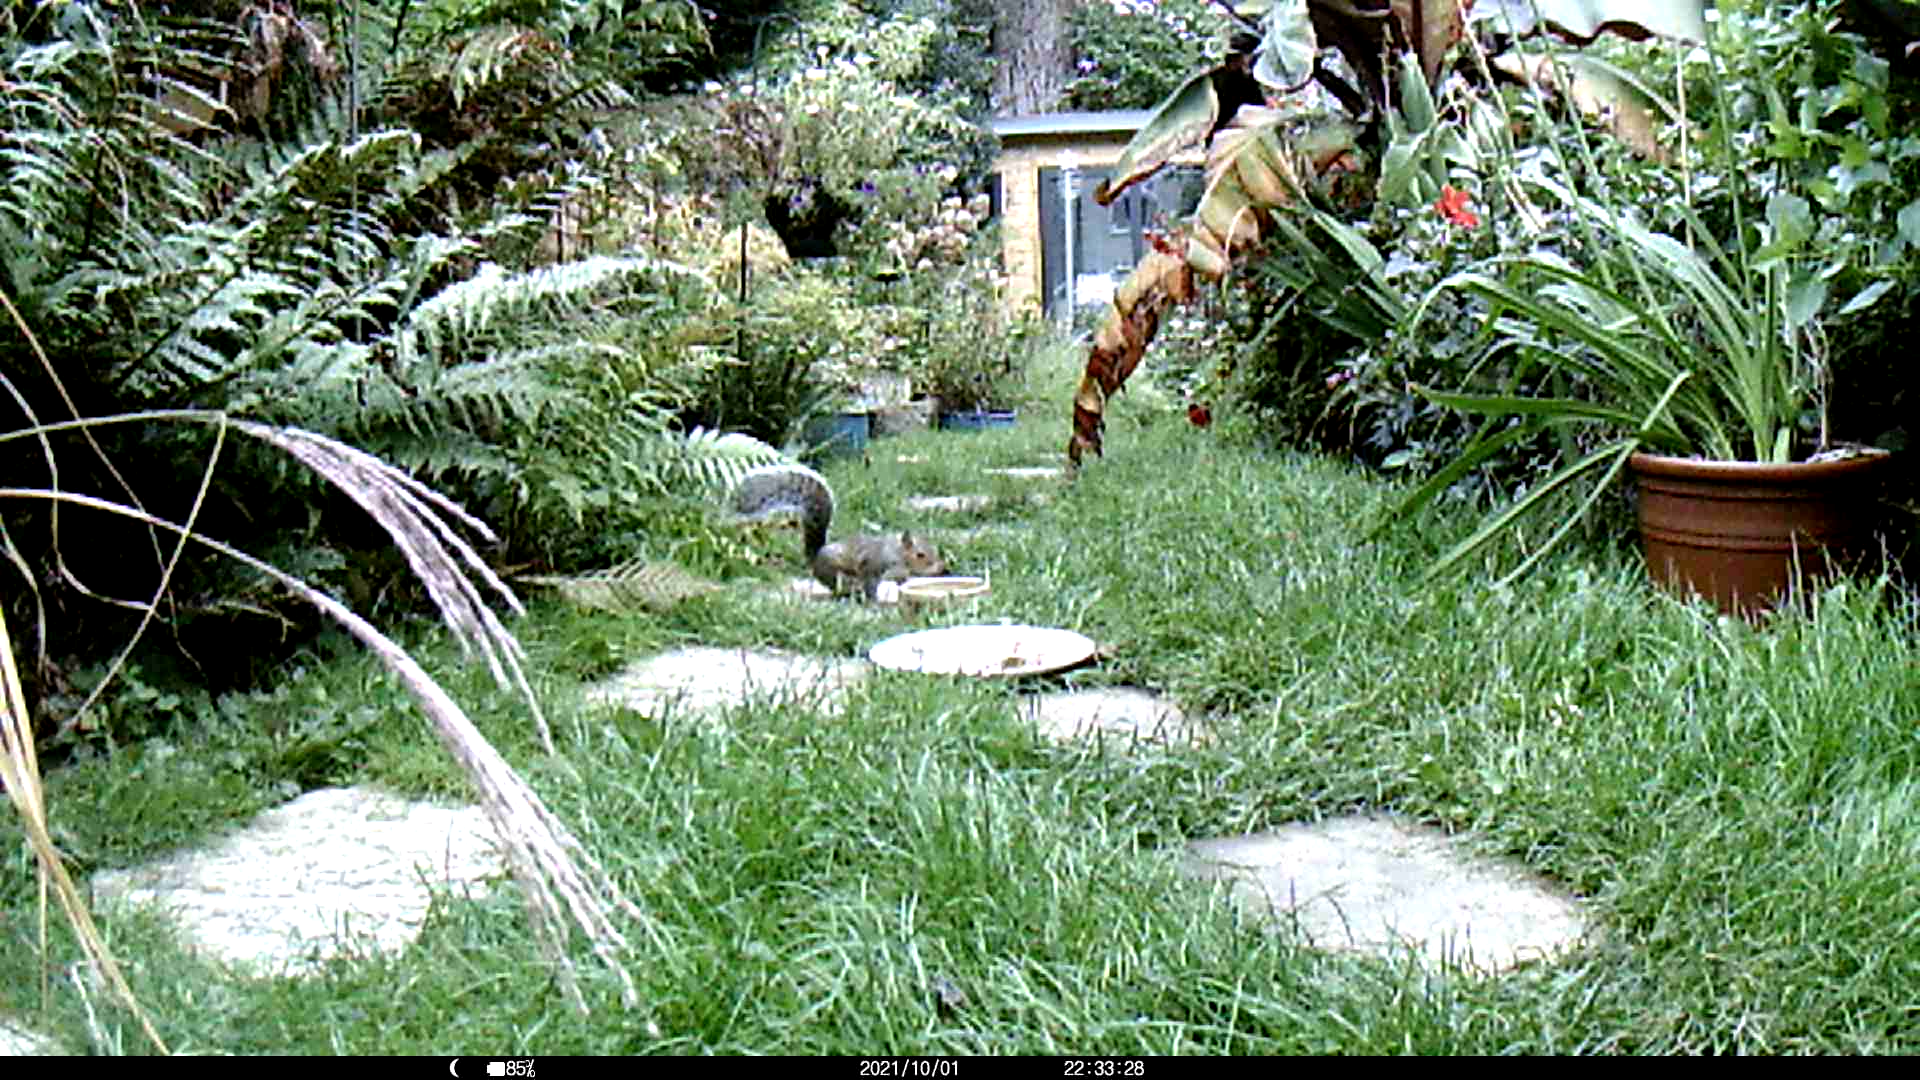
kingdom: Animalia
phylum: Chordata
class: Mammalia
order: Rodentia
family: Sciuridae
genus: Sciurus
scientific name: Sciurus carolinensis
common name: Eastern gray squirrel
